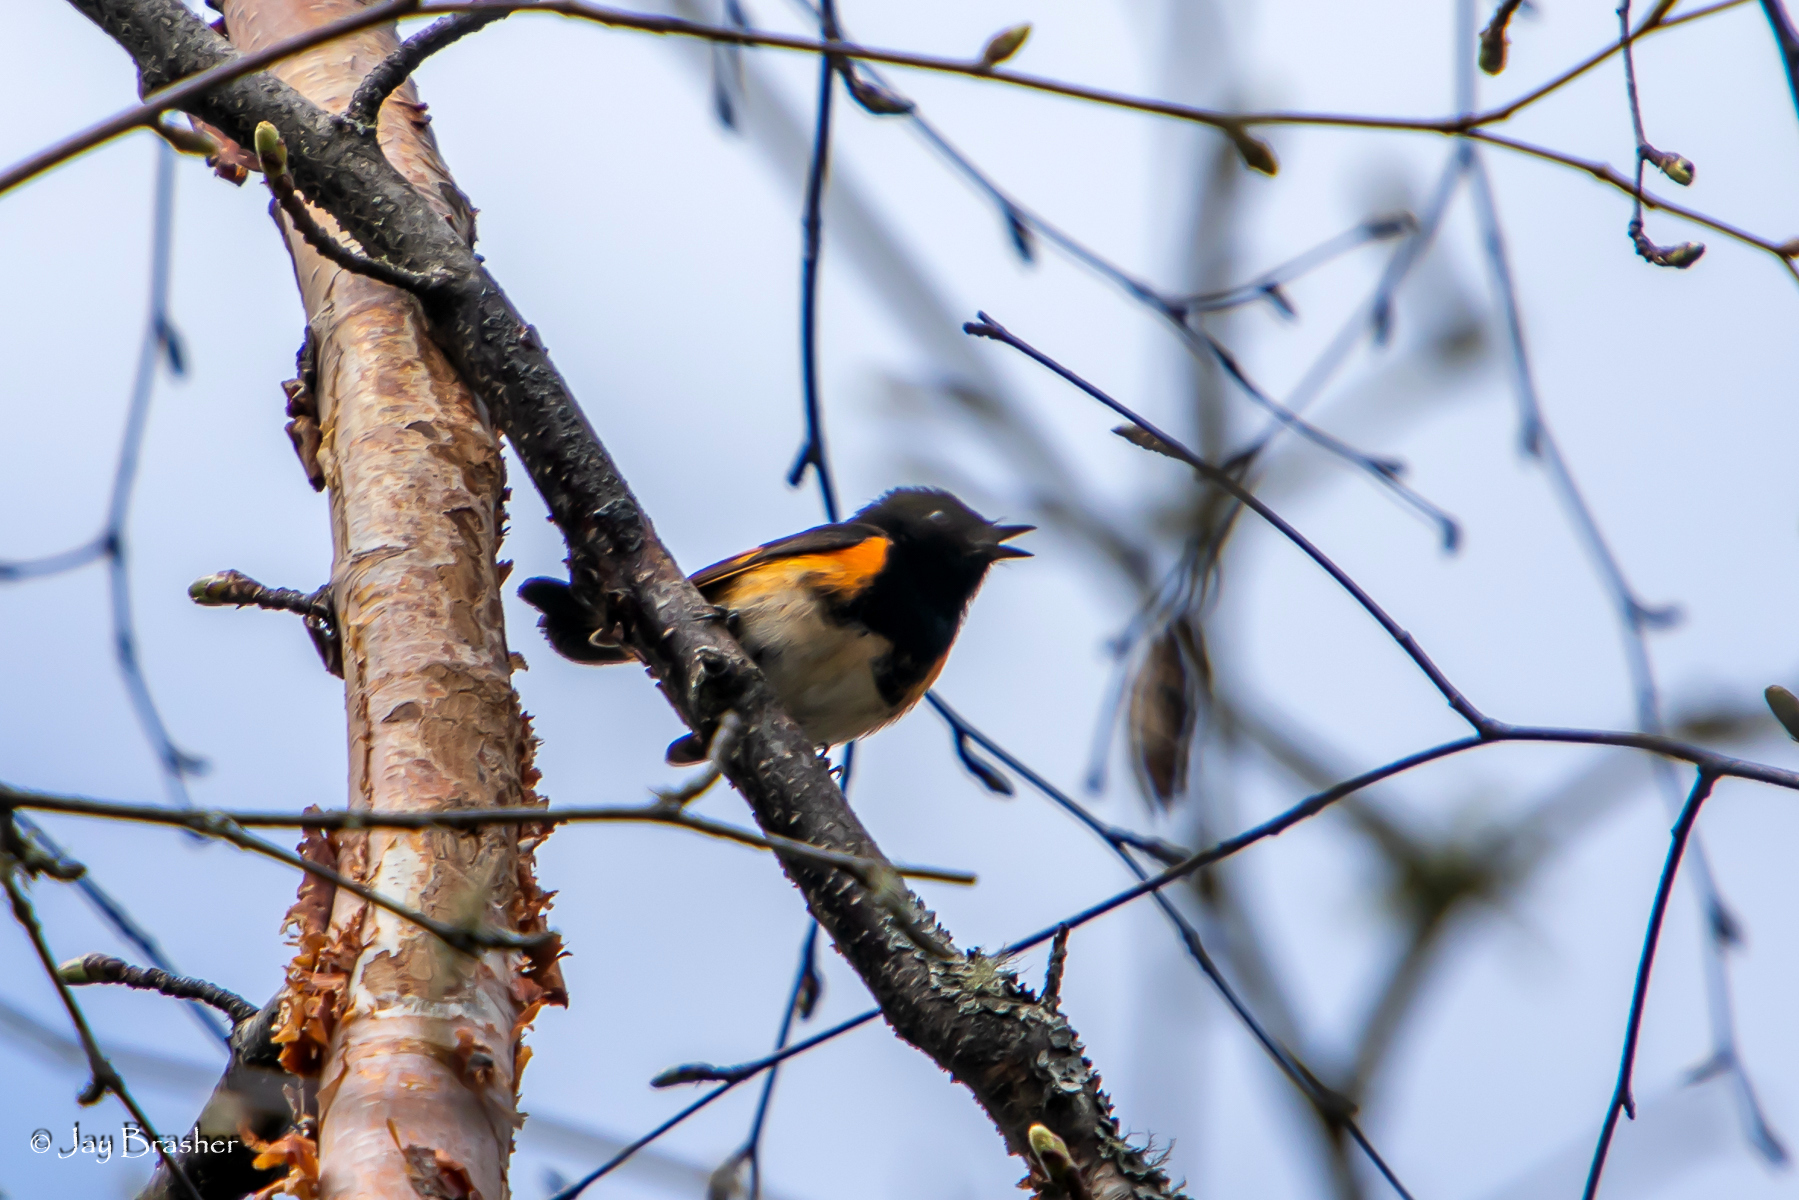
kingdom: Animalia
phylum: Chordata
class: Aves
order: Passeriformes
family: Parulidae
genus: Setophaga
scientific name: Setophaga ruticilla
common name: American redstart
